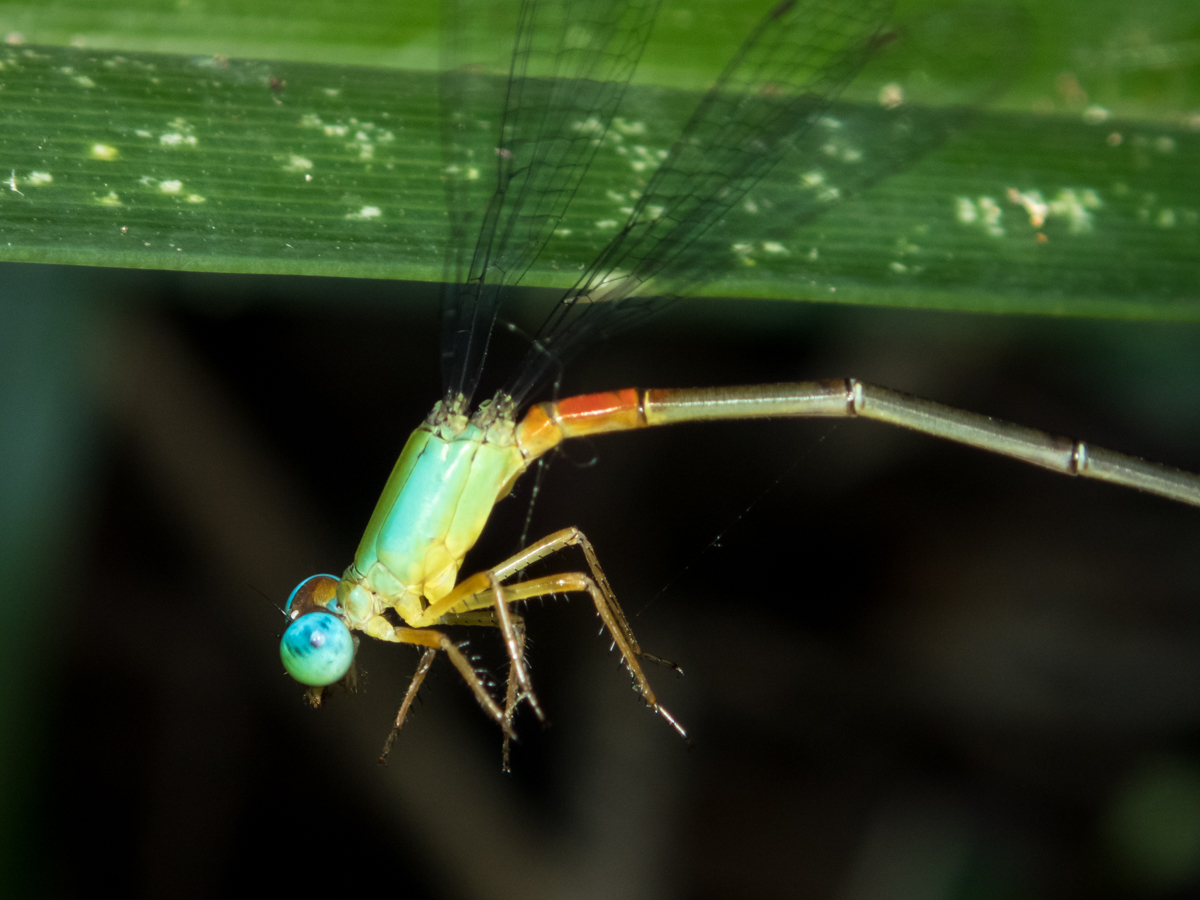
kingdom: Animalia
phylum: Arthropoda
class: Insecta
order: Odonata
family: Coenagrionidae
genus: Ceriagrion
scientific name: Ceriagrion cerinorubellum
